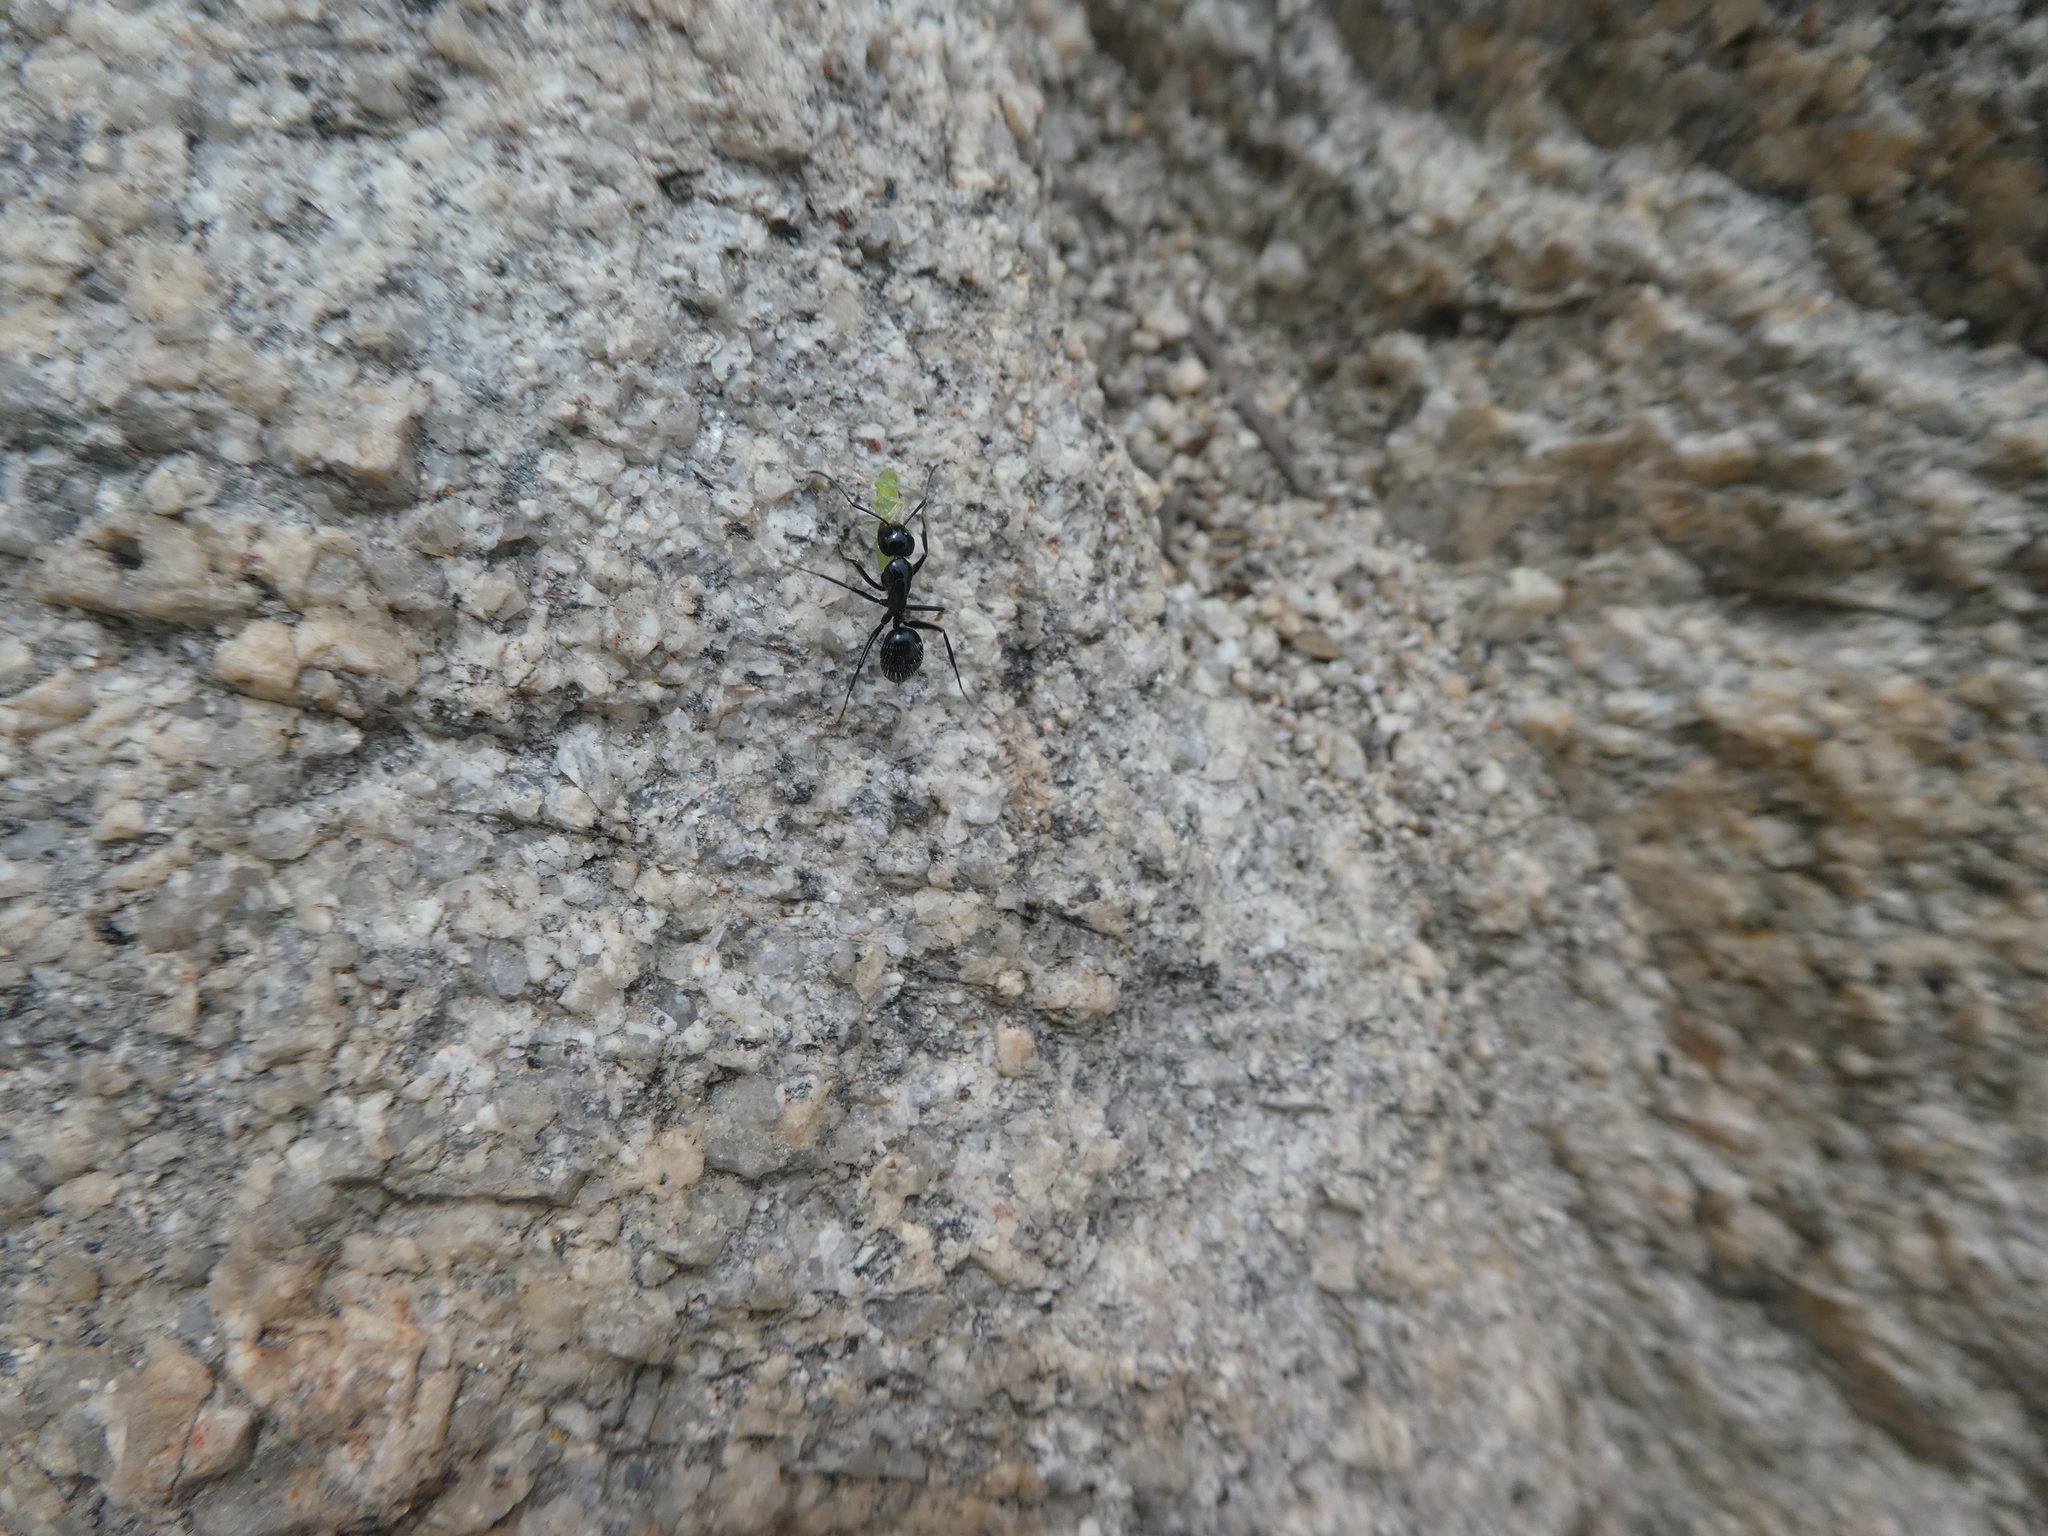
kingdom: Animalia
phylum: Arthropoda
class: Insecta
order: Hymenoptera
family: Formicidae
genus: Camponotus
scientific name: Camponotus
